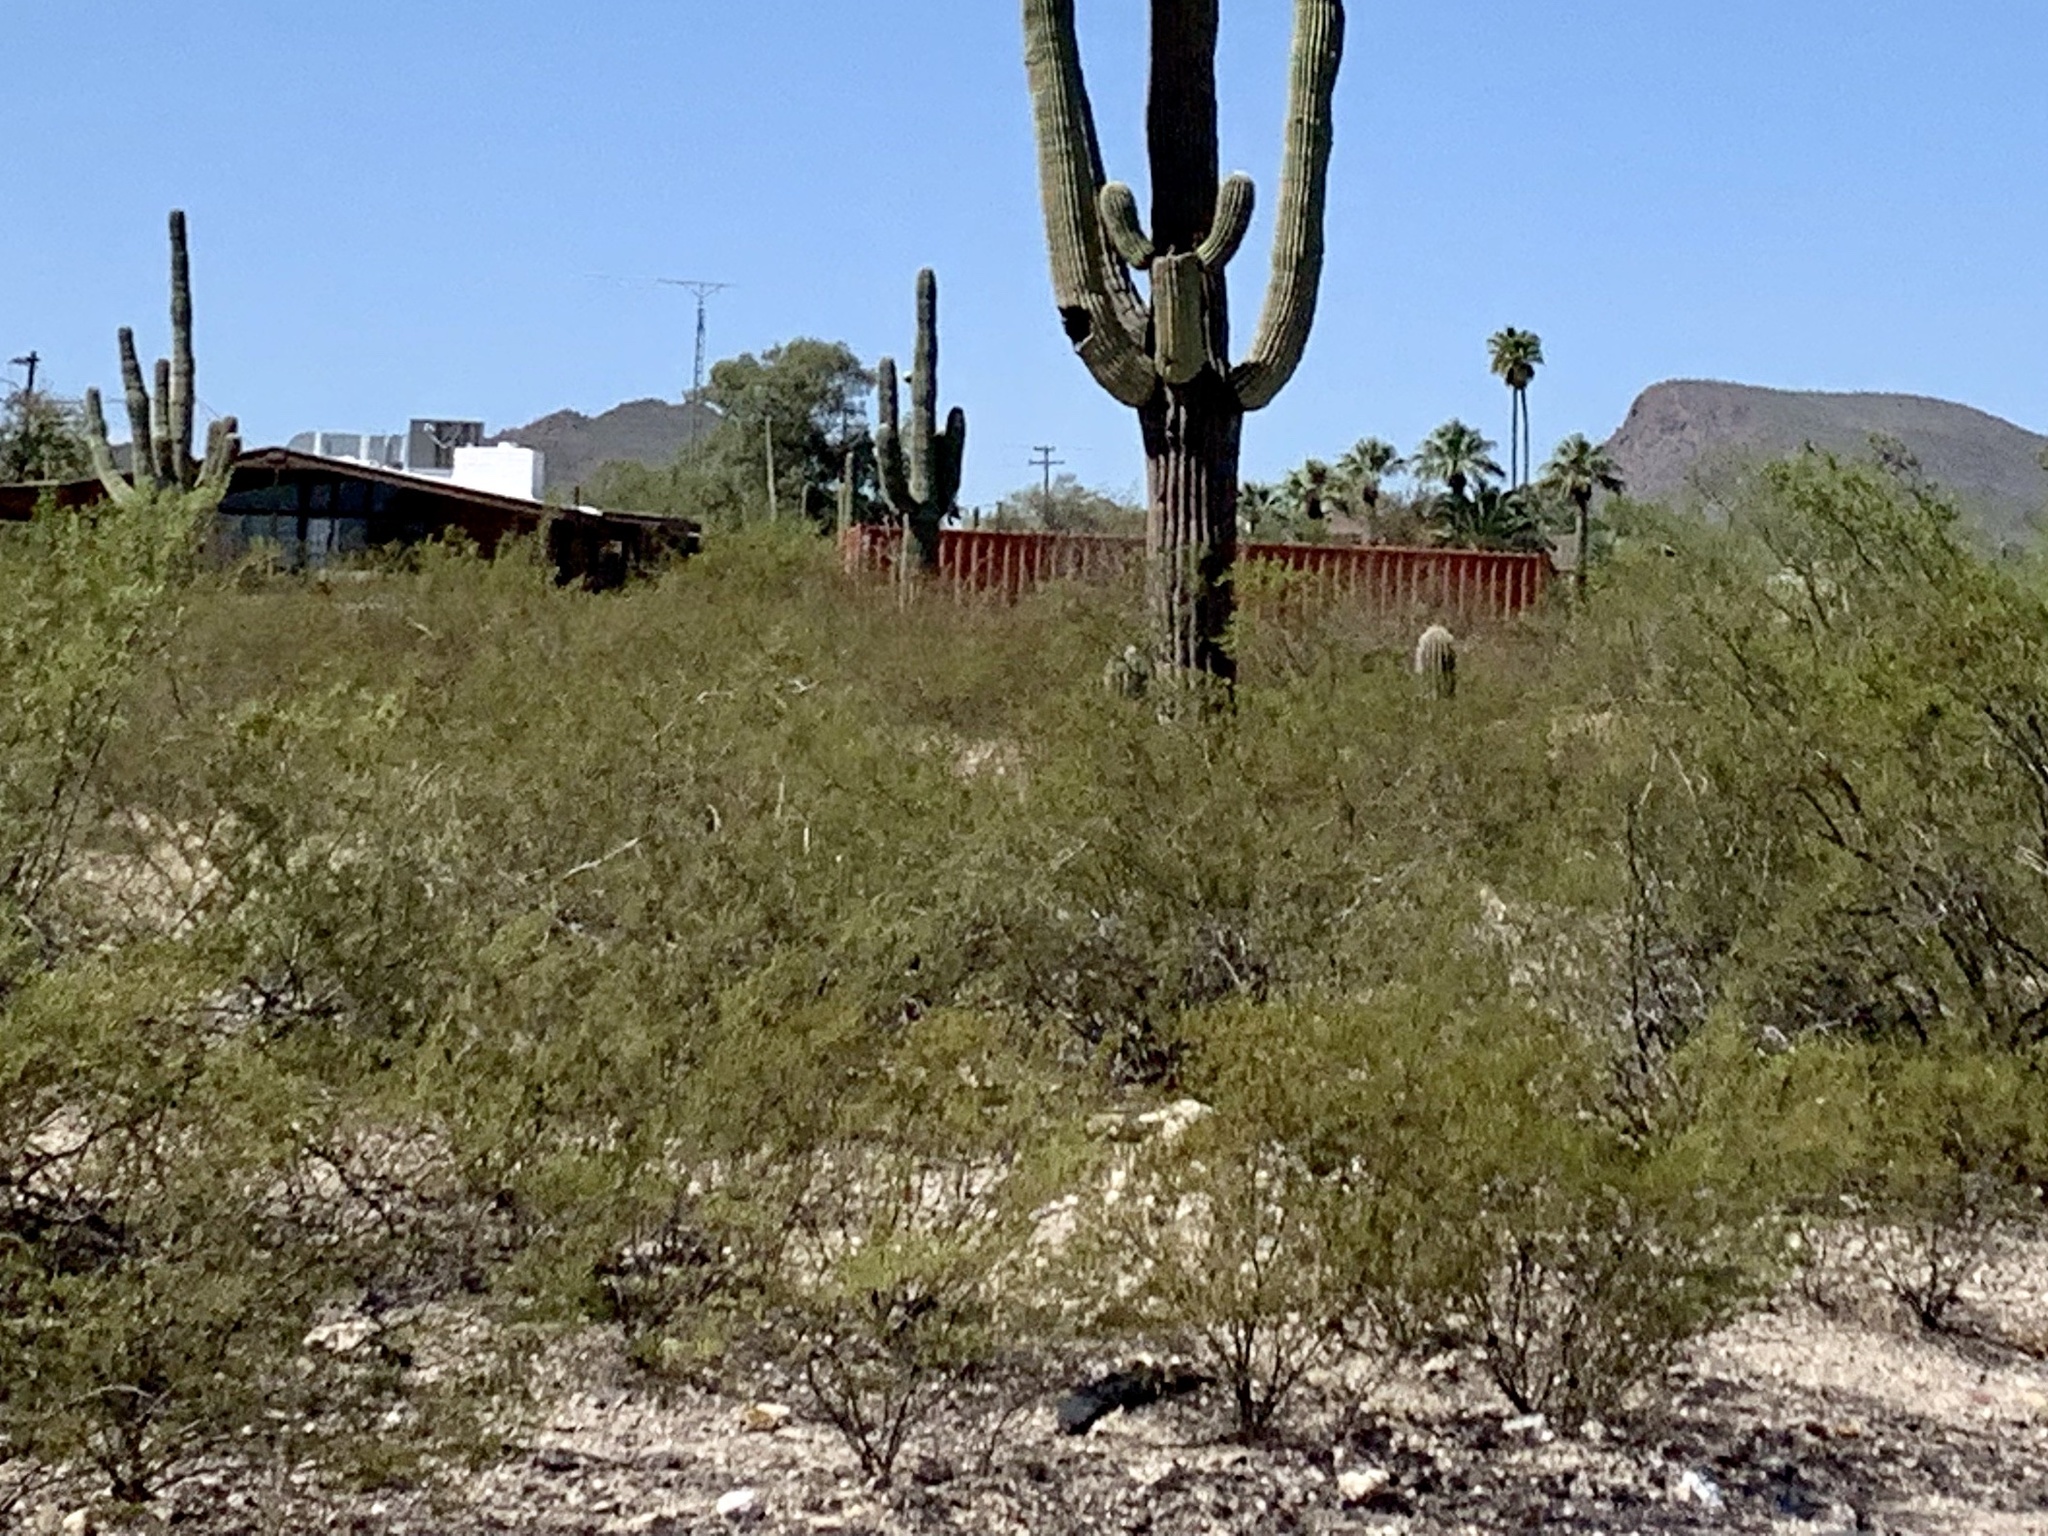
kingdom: Plantae
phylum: Tracheophyta
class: Magnoliopsida
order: Zygophyllales
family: Zygophyllaceae
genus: Larrea
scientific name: Larrea tridentata
